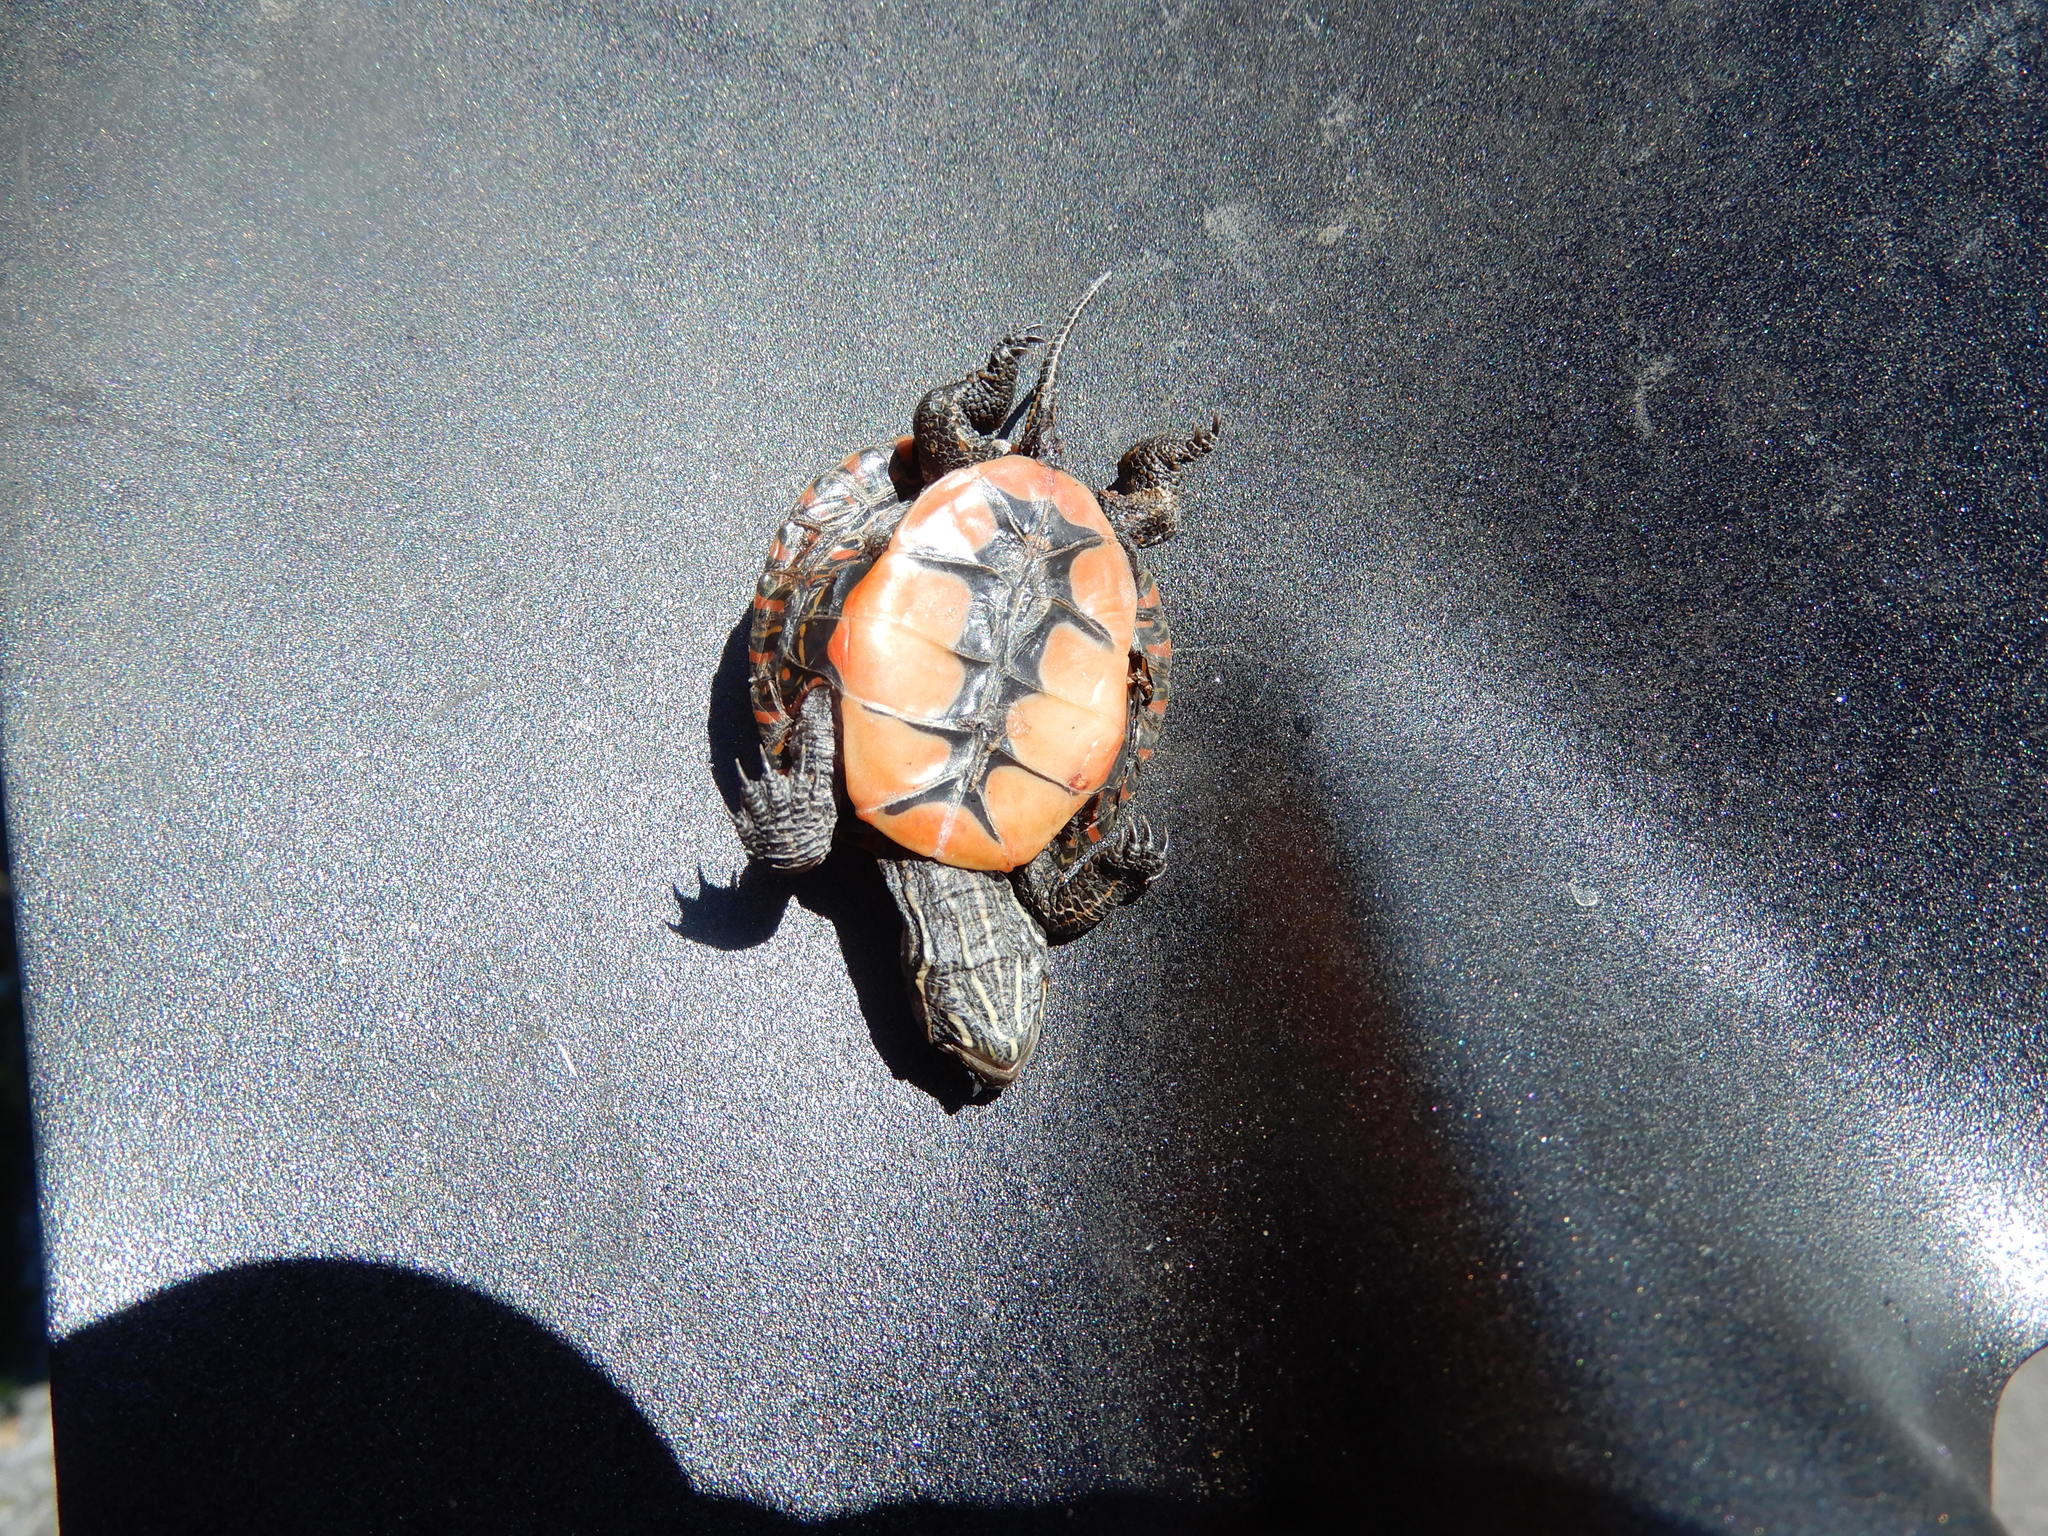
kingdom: Animalia
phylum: Chordata
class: Testudines
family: Emydidae
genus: Chrysemys
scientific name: Chrysemys picta
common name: Painted turtle
